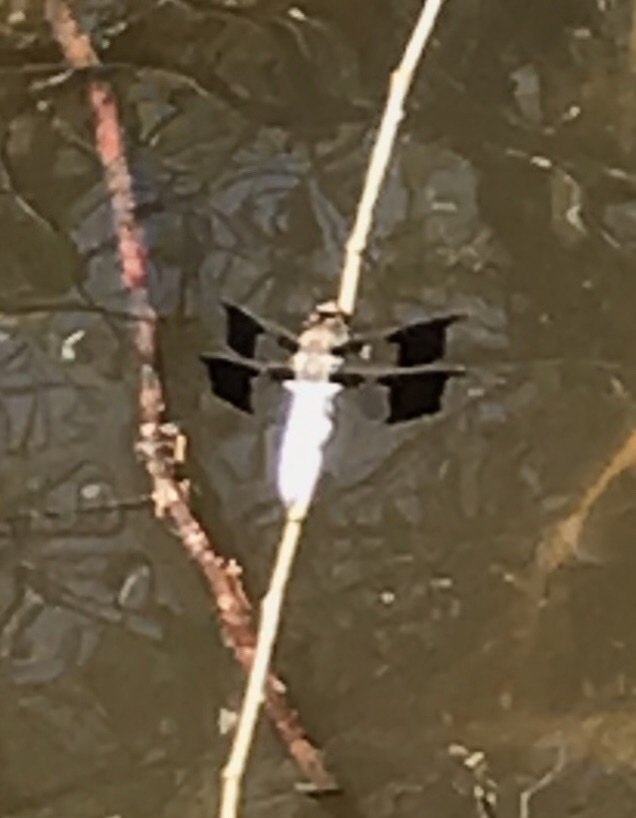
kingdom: Animalia
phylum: Arthropoda
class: Insecta
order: Odonata
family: Libellulidae
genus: Plathemis
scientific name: Plathemis lydia
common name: Common whitetail
